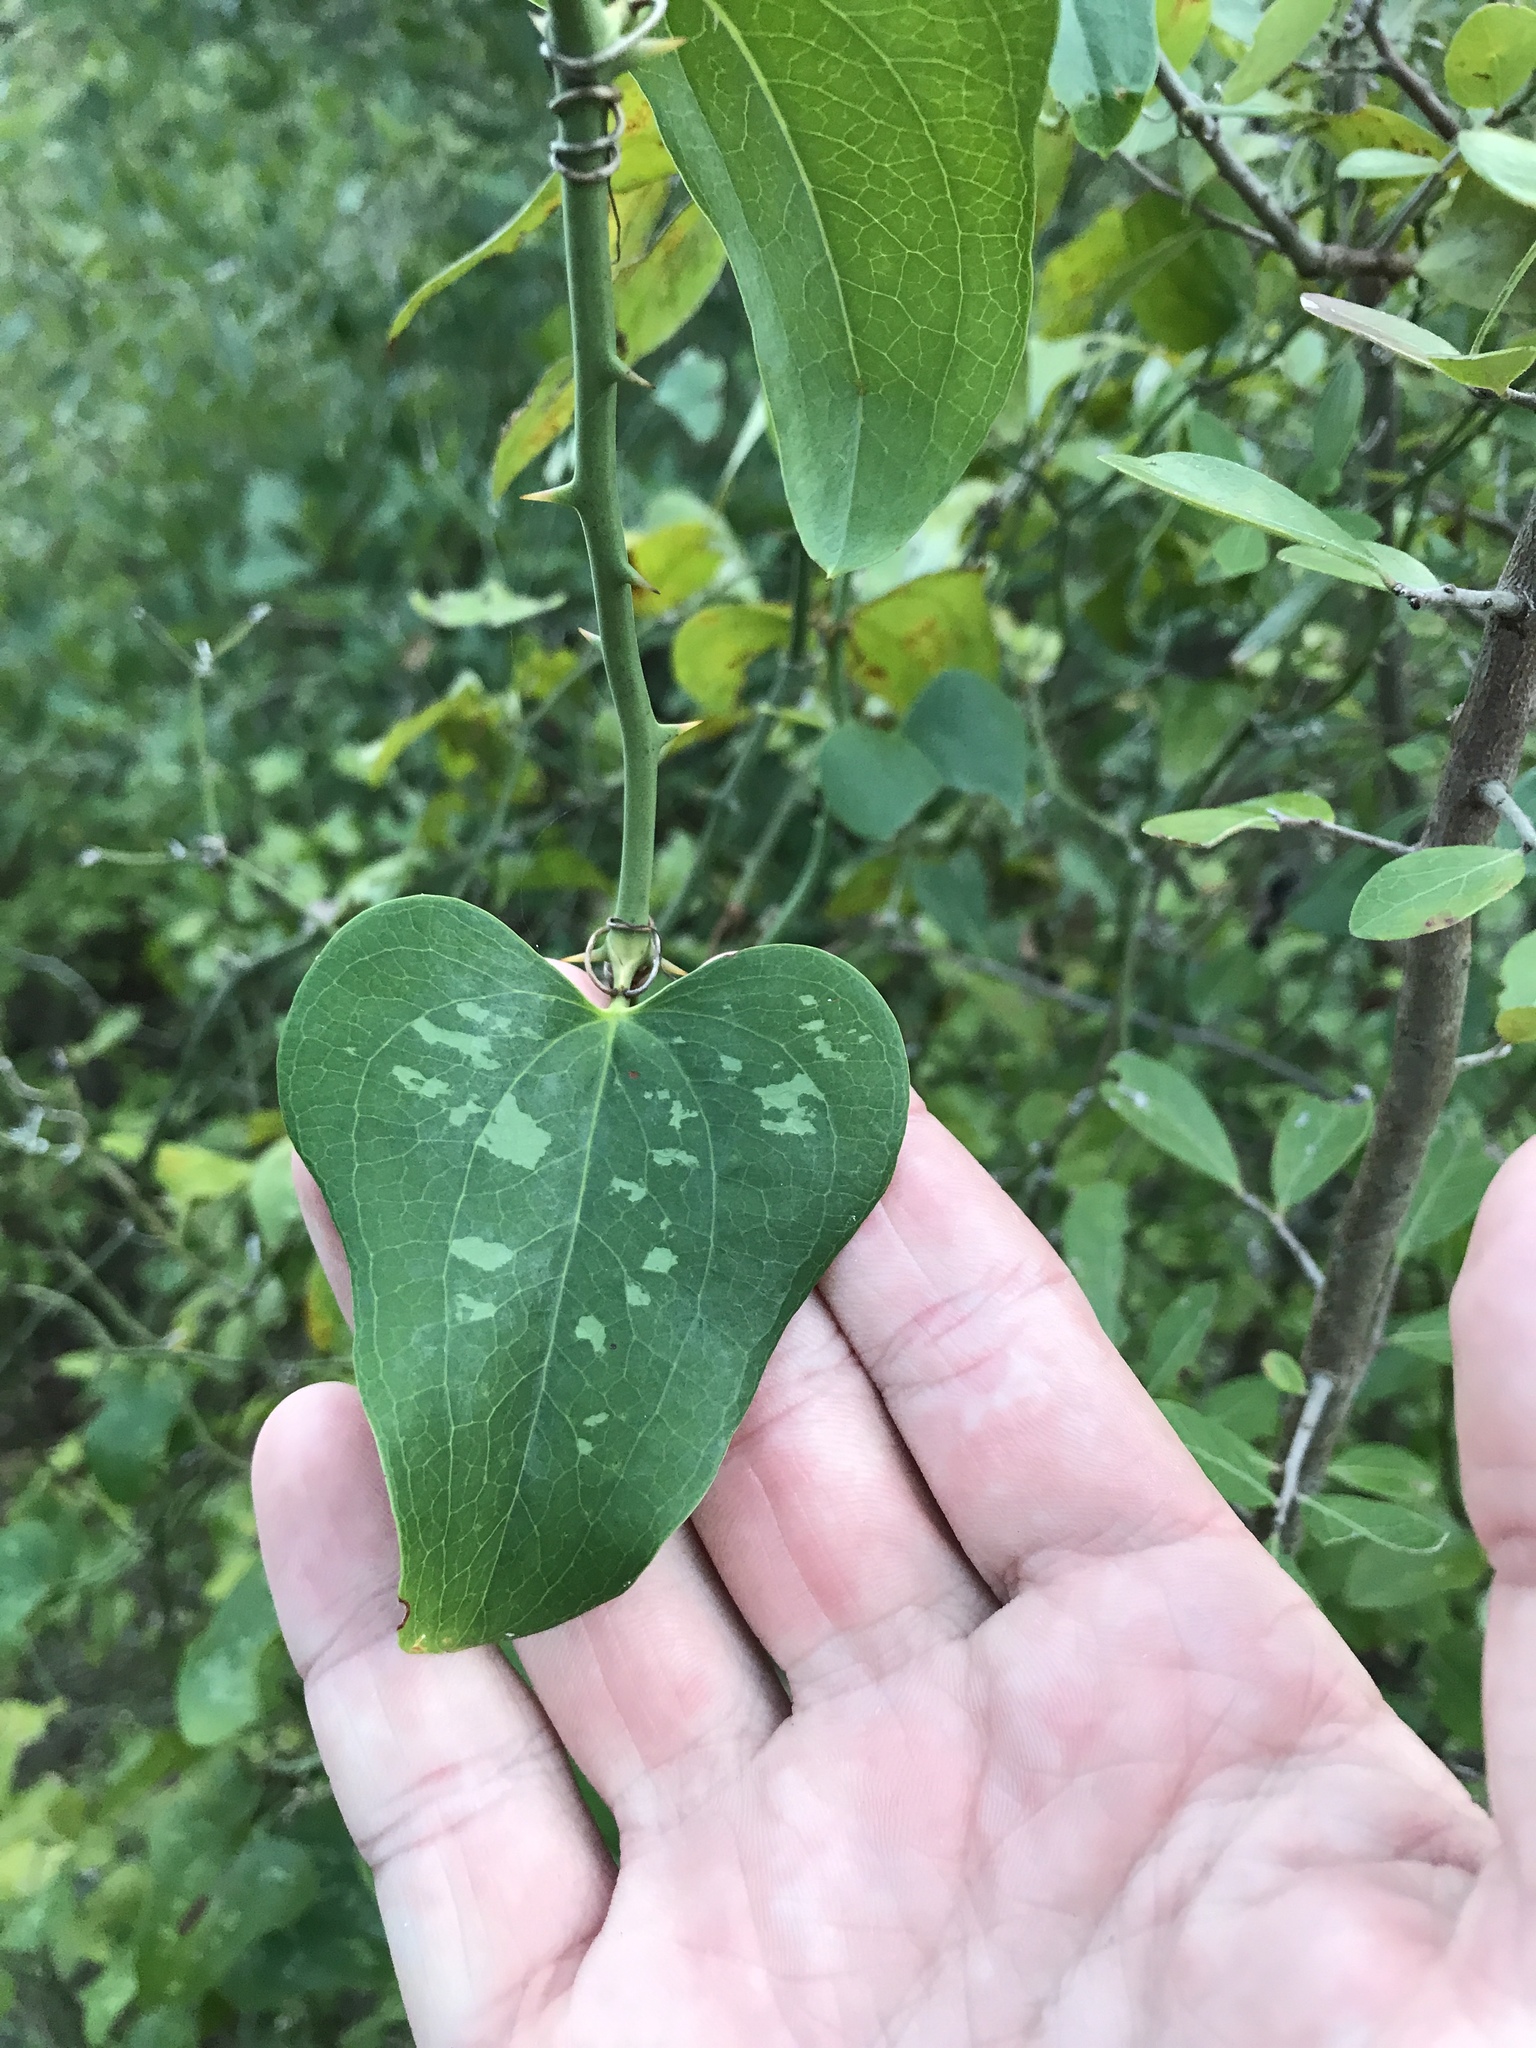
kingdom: Plantae
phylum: Tracheophyta
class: Liliopsida
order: Liliales
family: Smilacaceae
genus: Smilax
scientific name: Smilax bona-nox
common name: Catbrier
